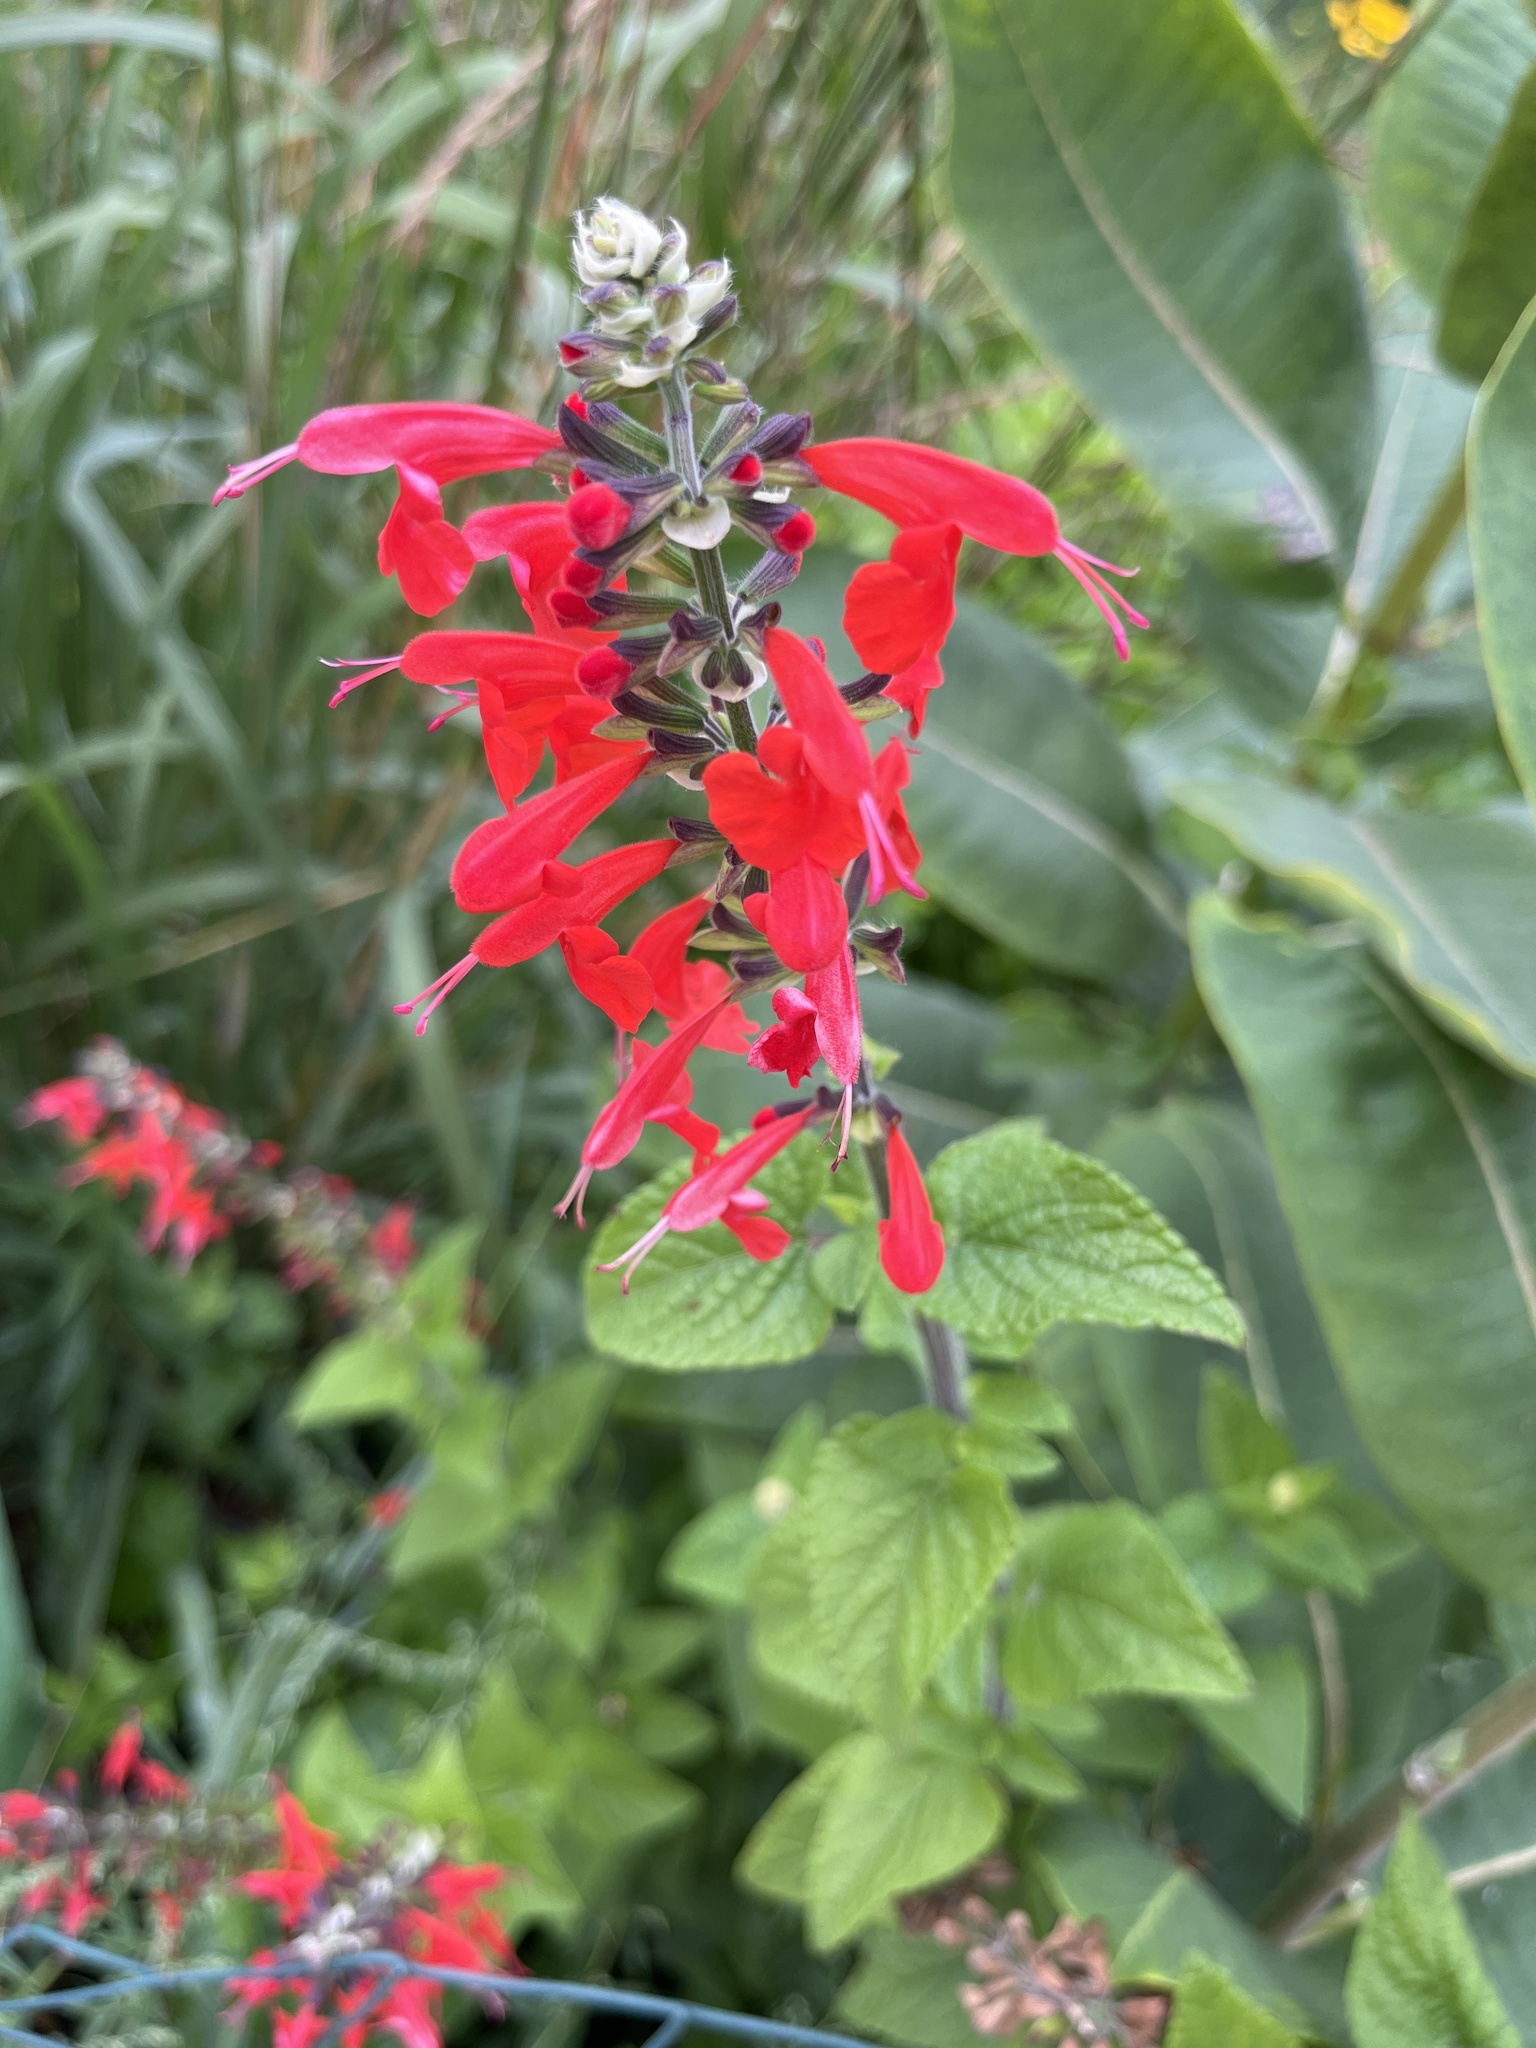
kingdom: Plantae
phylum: Tracheophyta
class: Magnoliopsida
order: Asterales
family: Campanulaceae
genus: Lobelia
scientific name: Lobelia cardinalis
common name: Cardinal flower
